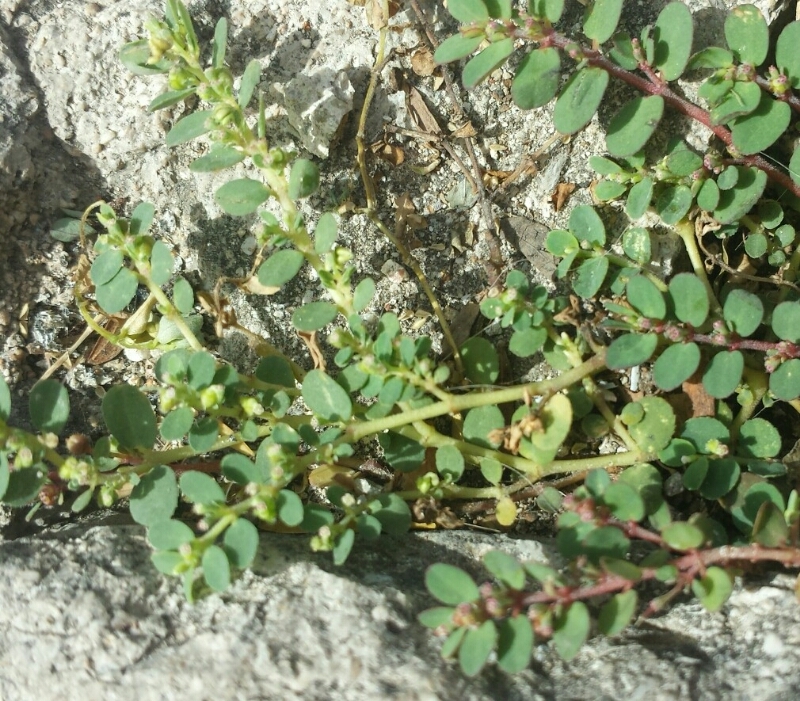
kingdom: Plantae
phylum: Tracheophyta
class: Magnoliopsida
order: Malpighiales
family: Euphorbiaceae
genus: Euphorbia
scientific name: Euphorbia prostrata
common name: Prostrate sandmat
